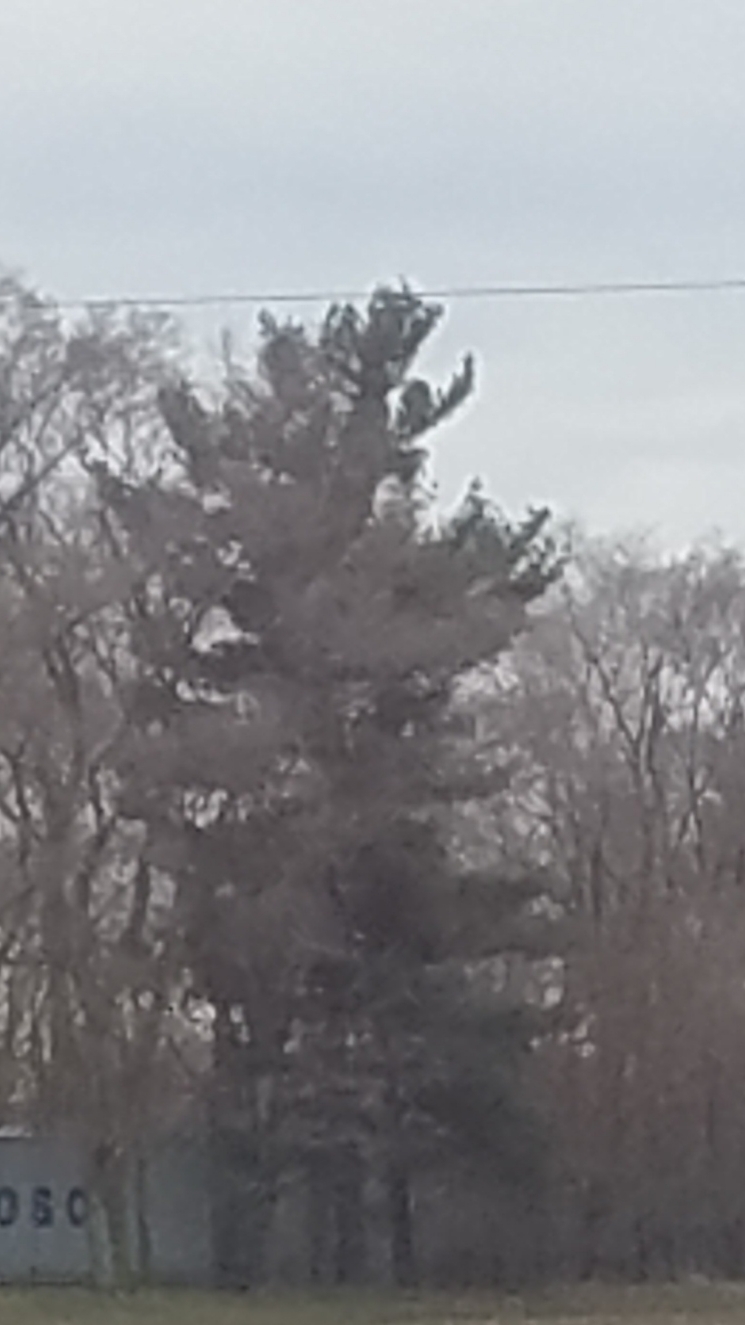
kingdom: Plantae
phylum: Tracheophyta
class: Pinopsida
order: Pinales
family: Pinaceae
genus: Pinus
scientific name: Pinus strobus
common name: Weymouth pine
